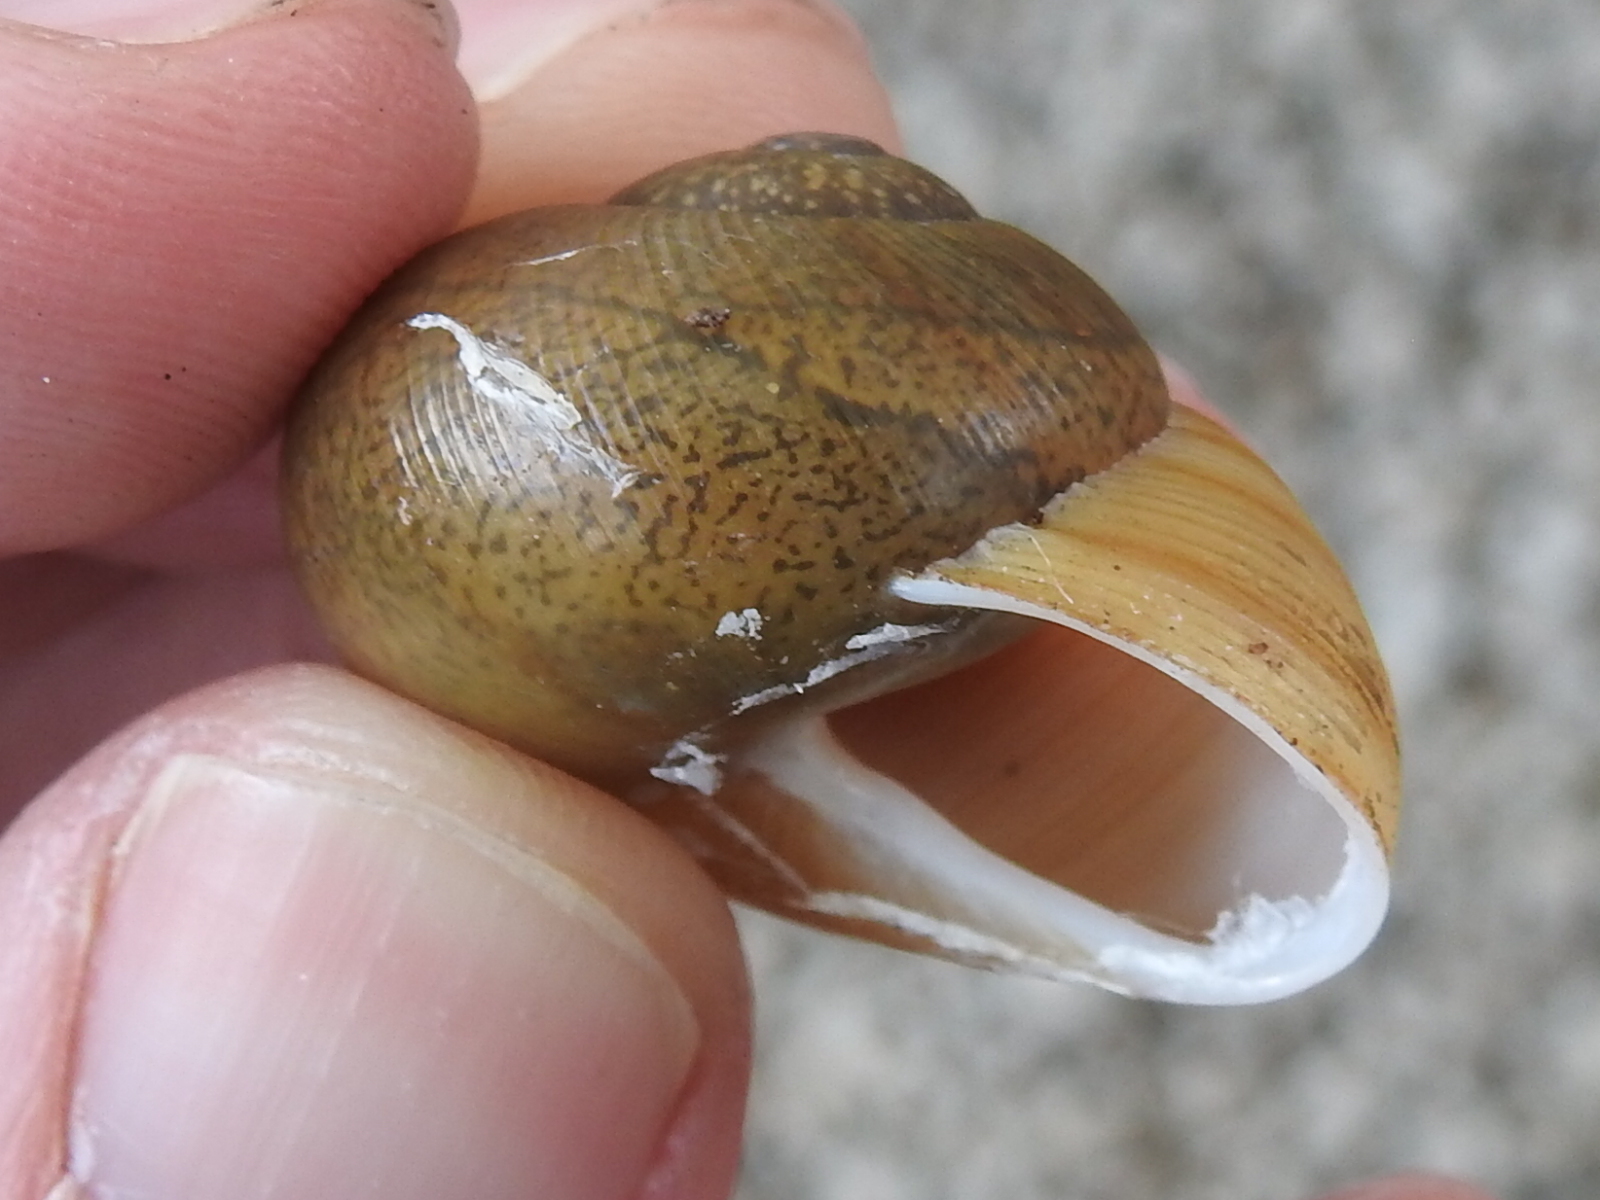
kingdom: Animalia
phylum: Mollusca
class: Gastropoda
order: Stylommatophora
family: Zachrysiidae
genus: Zachrysia
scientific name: Zachrysia provisoria
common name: Garden zachrysia
